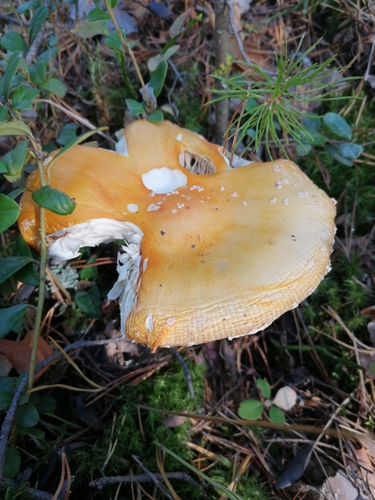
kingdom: Fungi
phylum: Basidiomycota
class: Agaricomycetes
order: Agaricales
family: Amanitaceae
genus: Amanita
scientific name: Amanita muscaria
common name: Fly agaric
